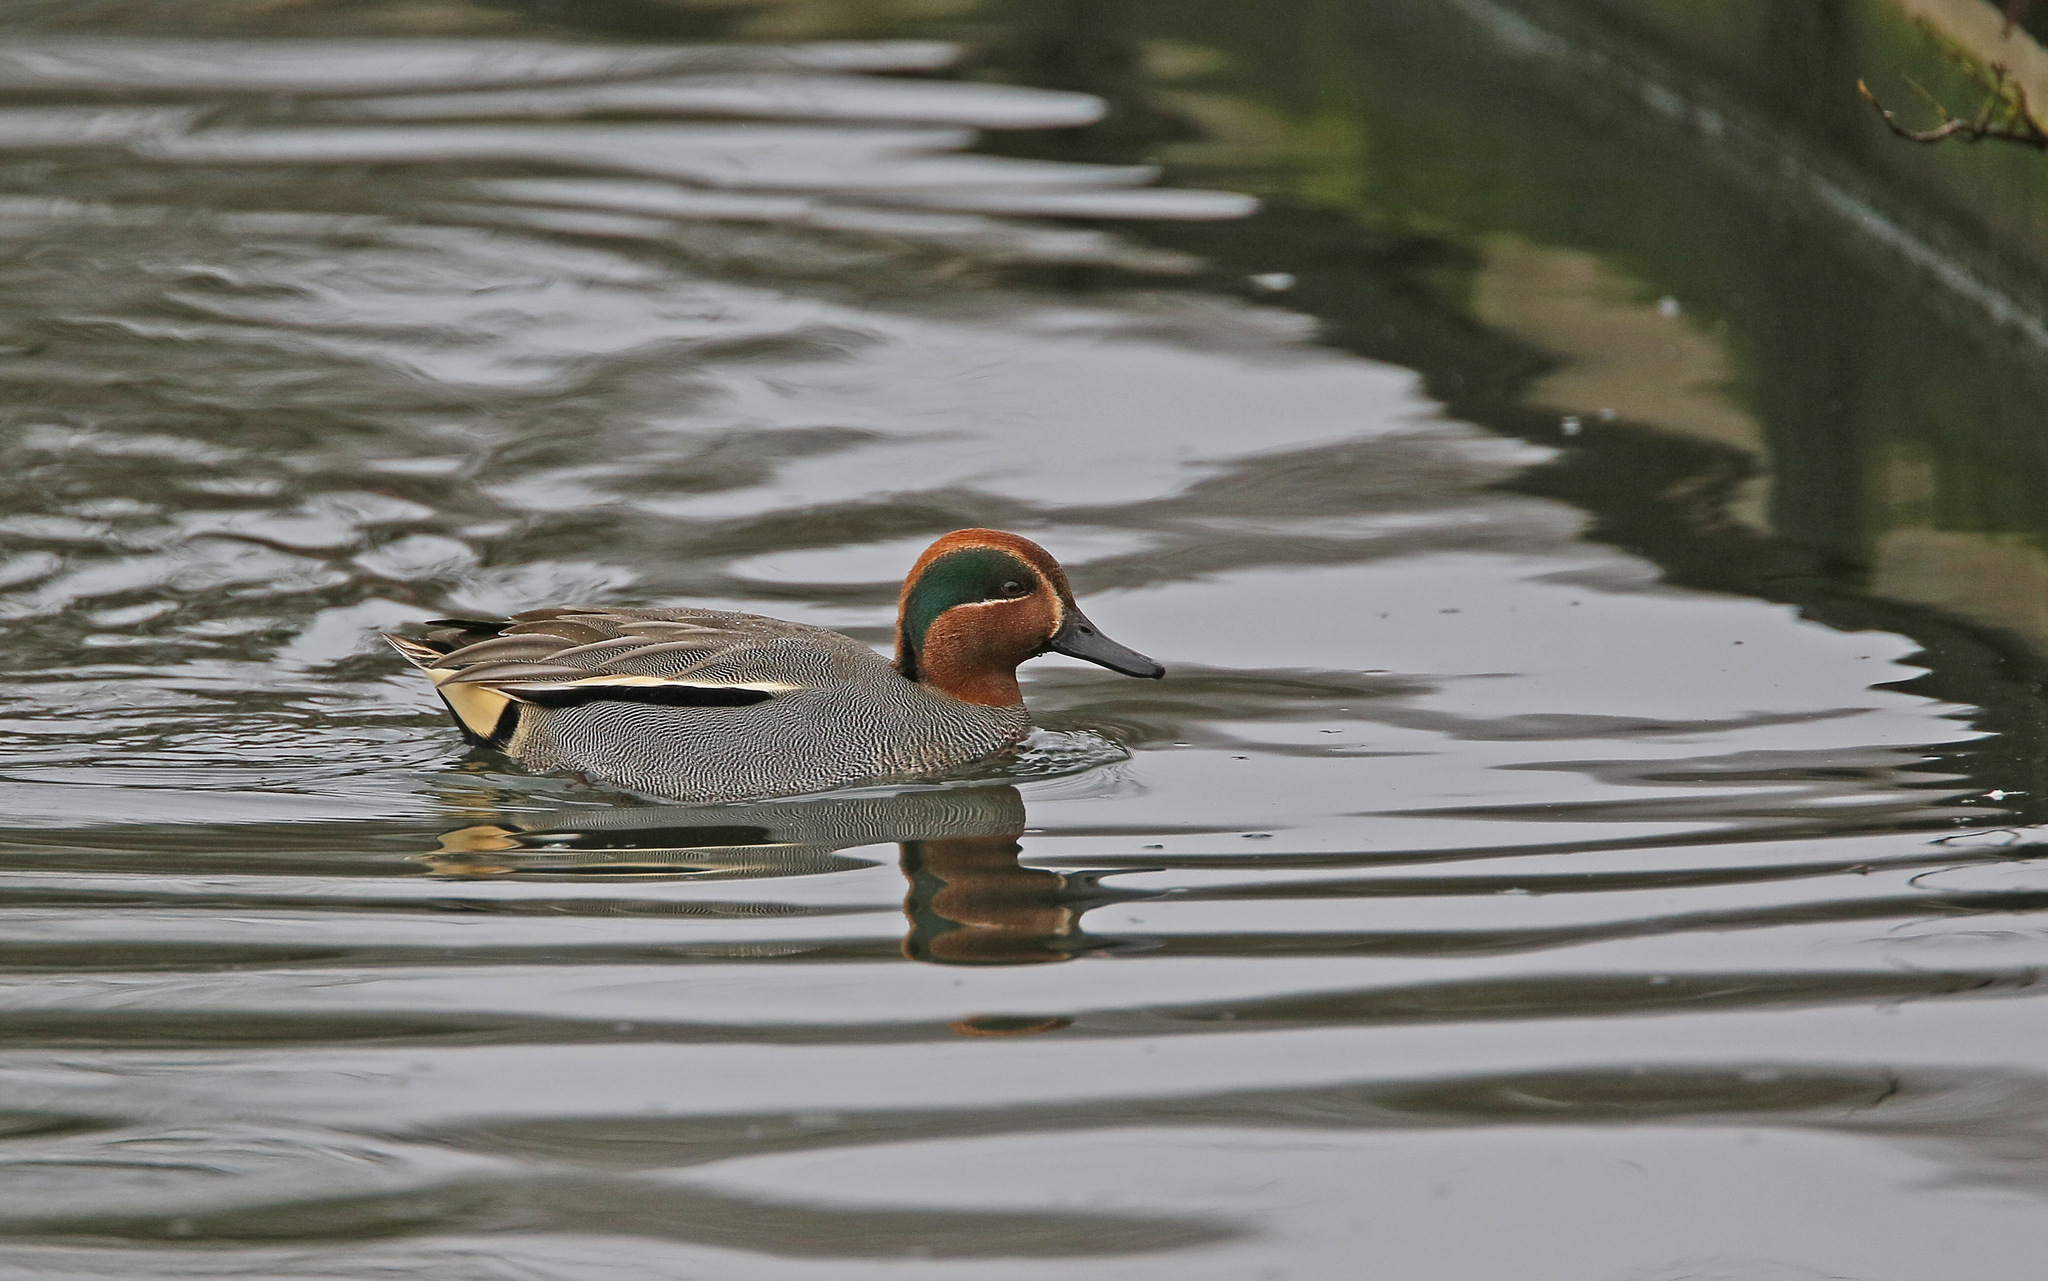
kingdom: Animalia
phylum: Chordata
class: Aves
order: Anseriformes
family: Anatidae
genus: Anas
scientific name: Anas crecca
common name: Eurasian teal
